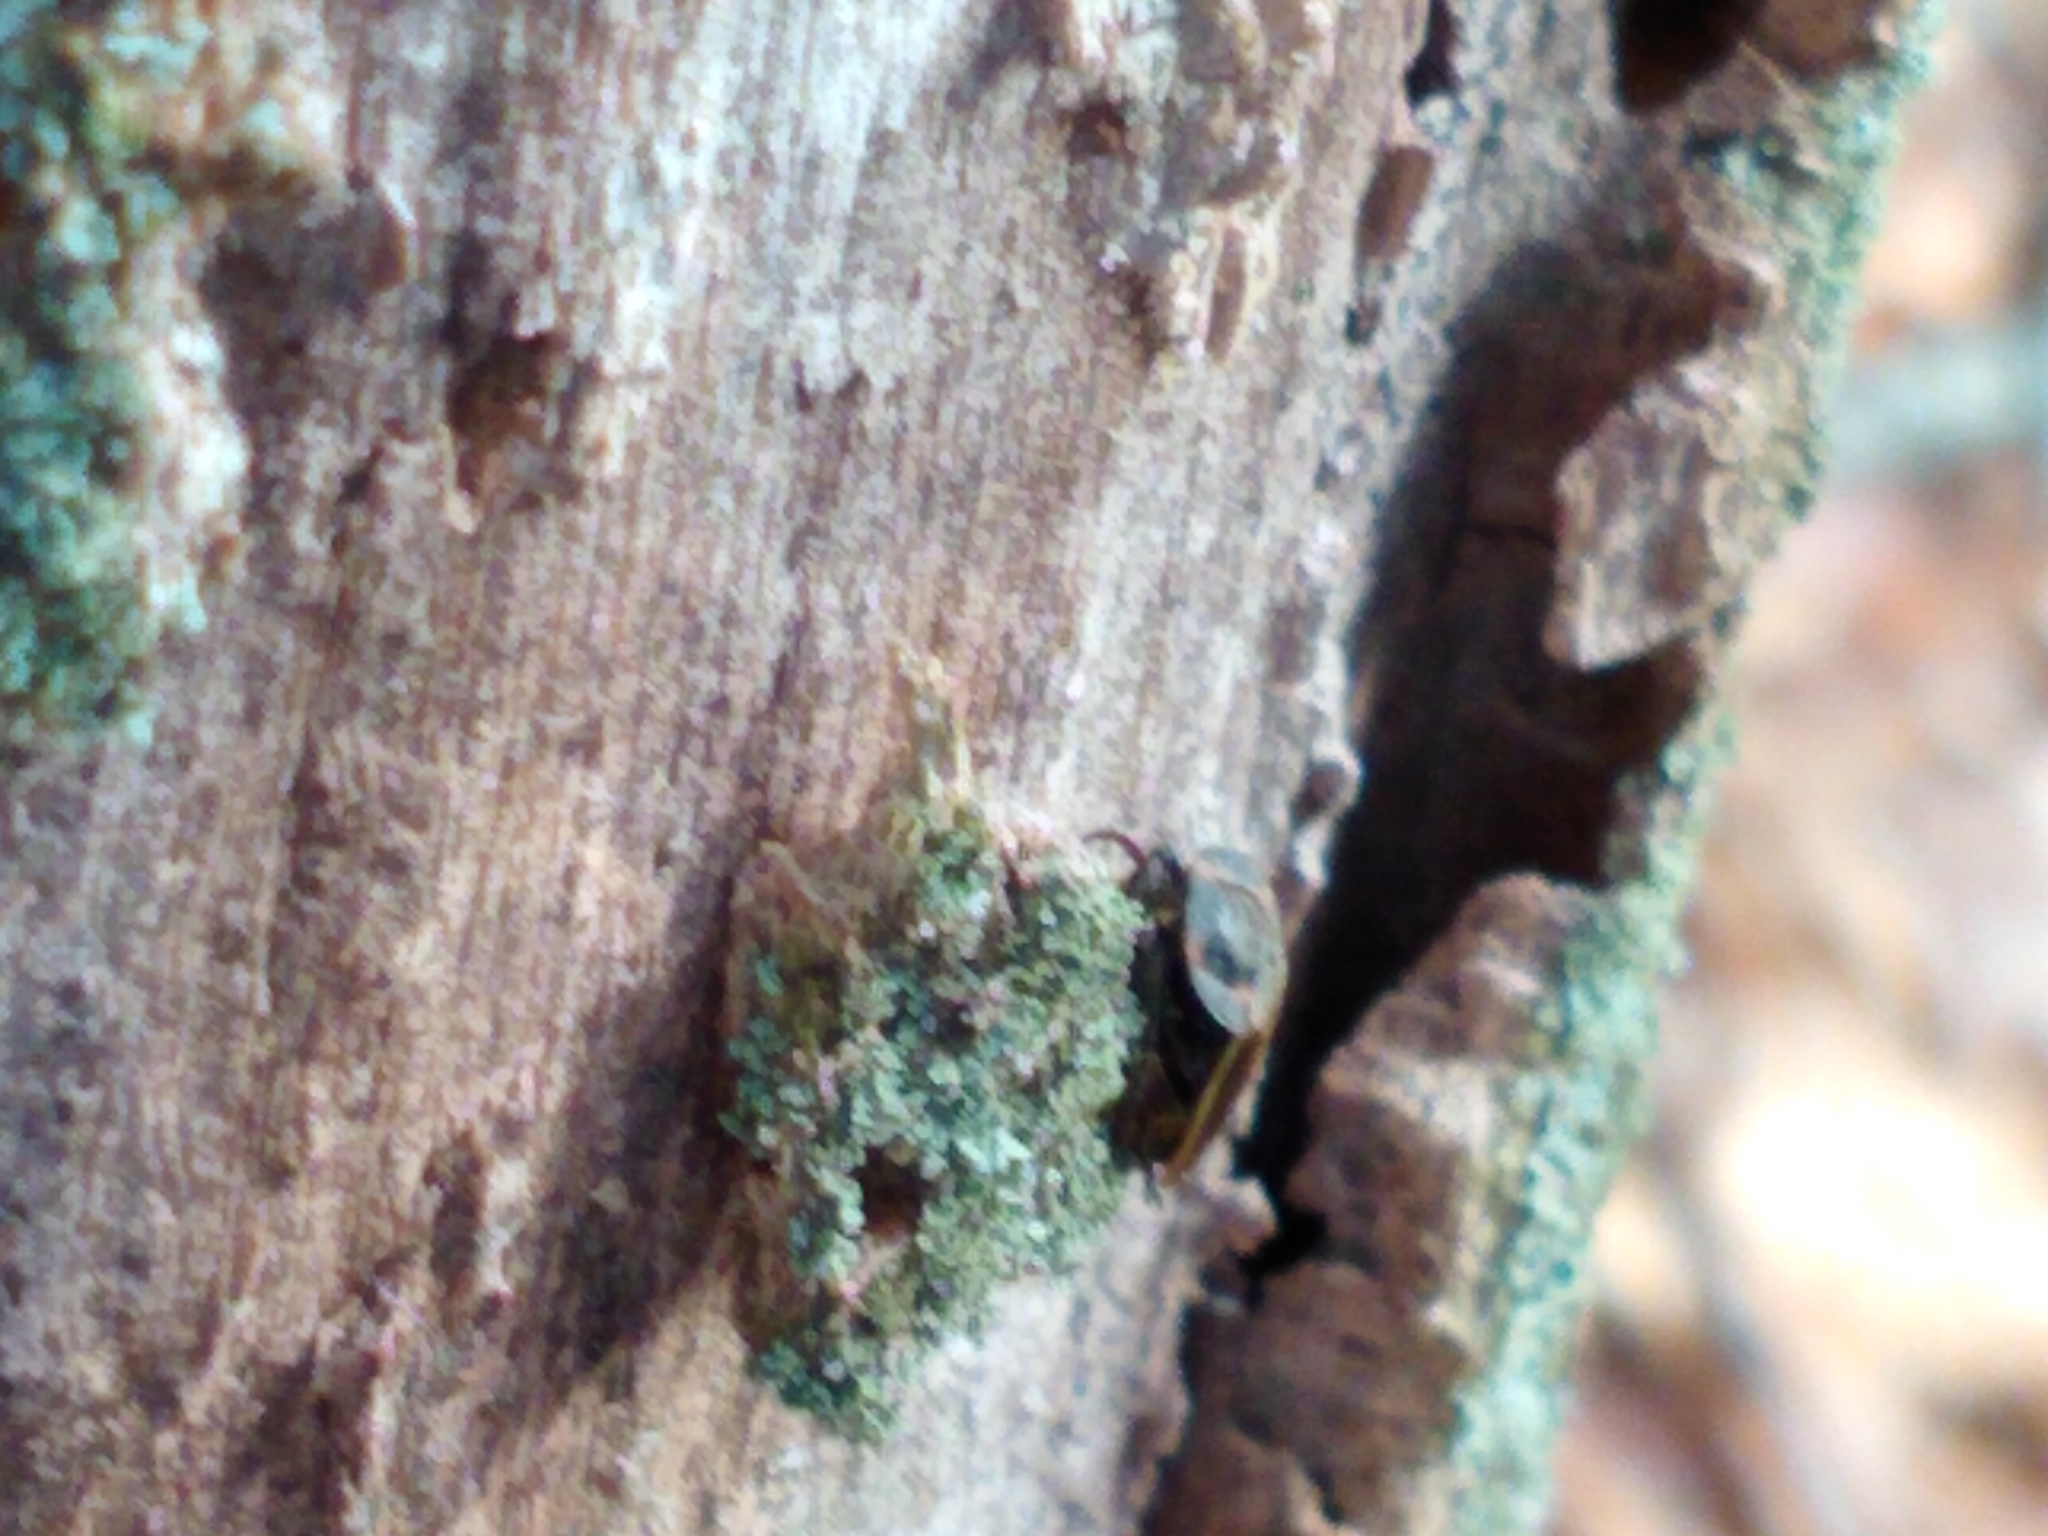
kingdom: Animalia
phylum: Arthropoda
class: Insecta
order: Coleoptera
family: Lampyridae
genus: Photinus
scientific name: Photinus corrusca
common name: Winter firefly
